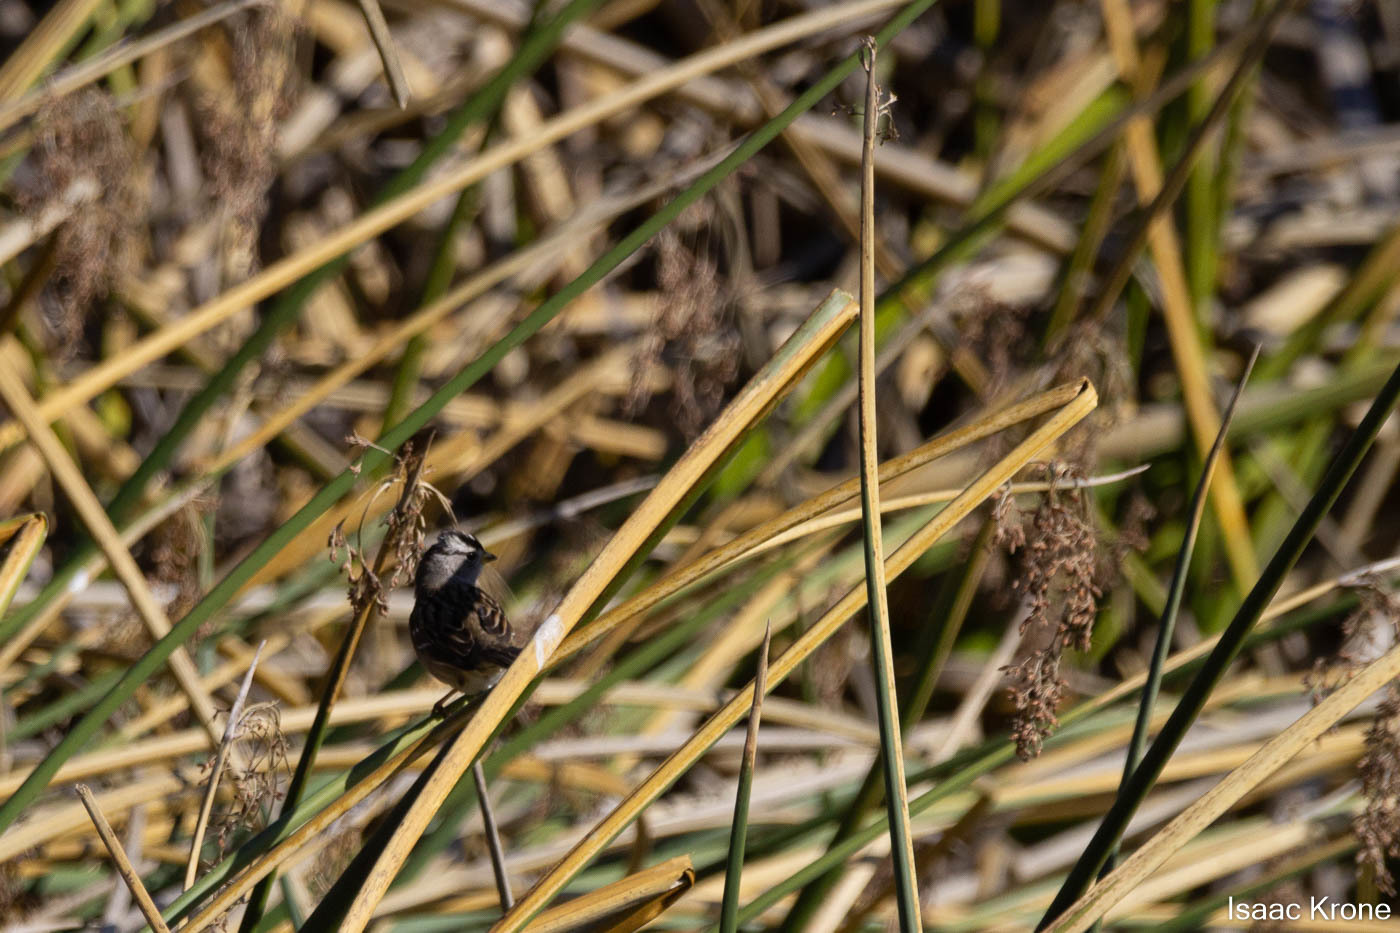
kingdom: Animalia
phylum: Chordata
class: Aves
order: Passeriformes
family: Passerellidae
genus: Zonotrichia
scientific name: Zonotrichia leucophrys
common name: White-crowned sparrow
